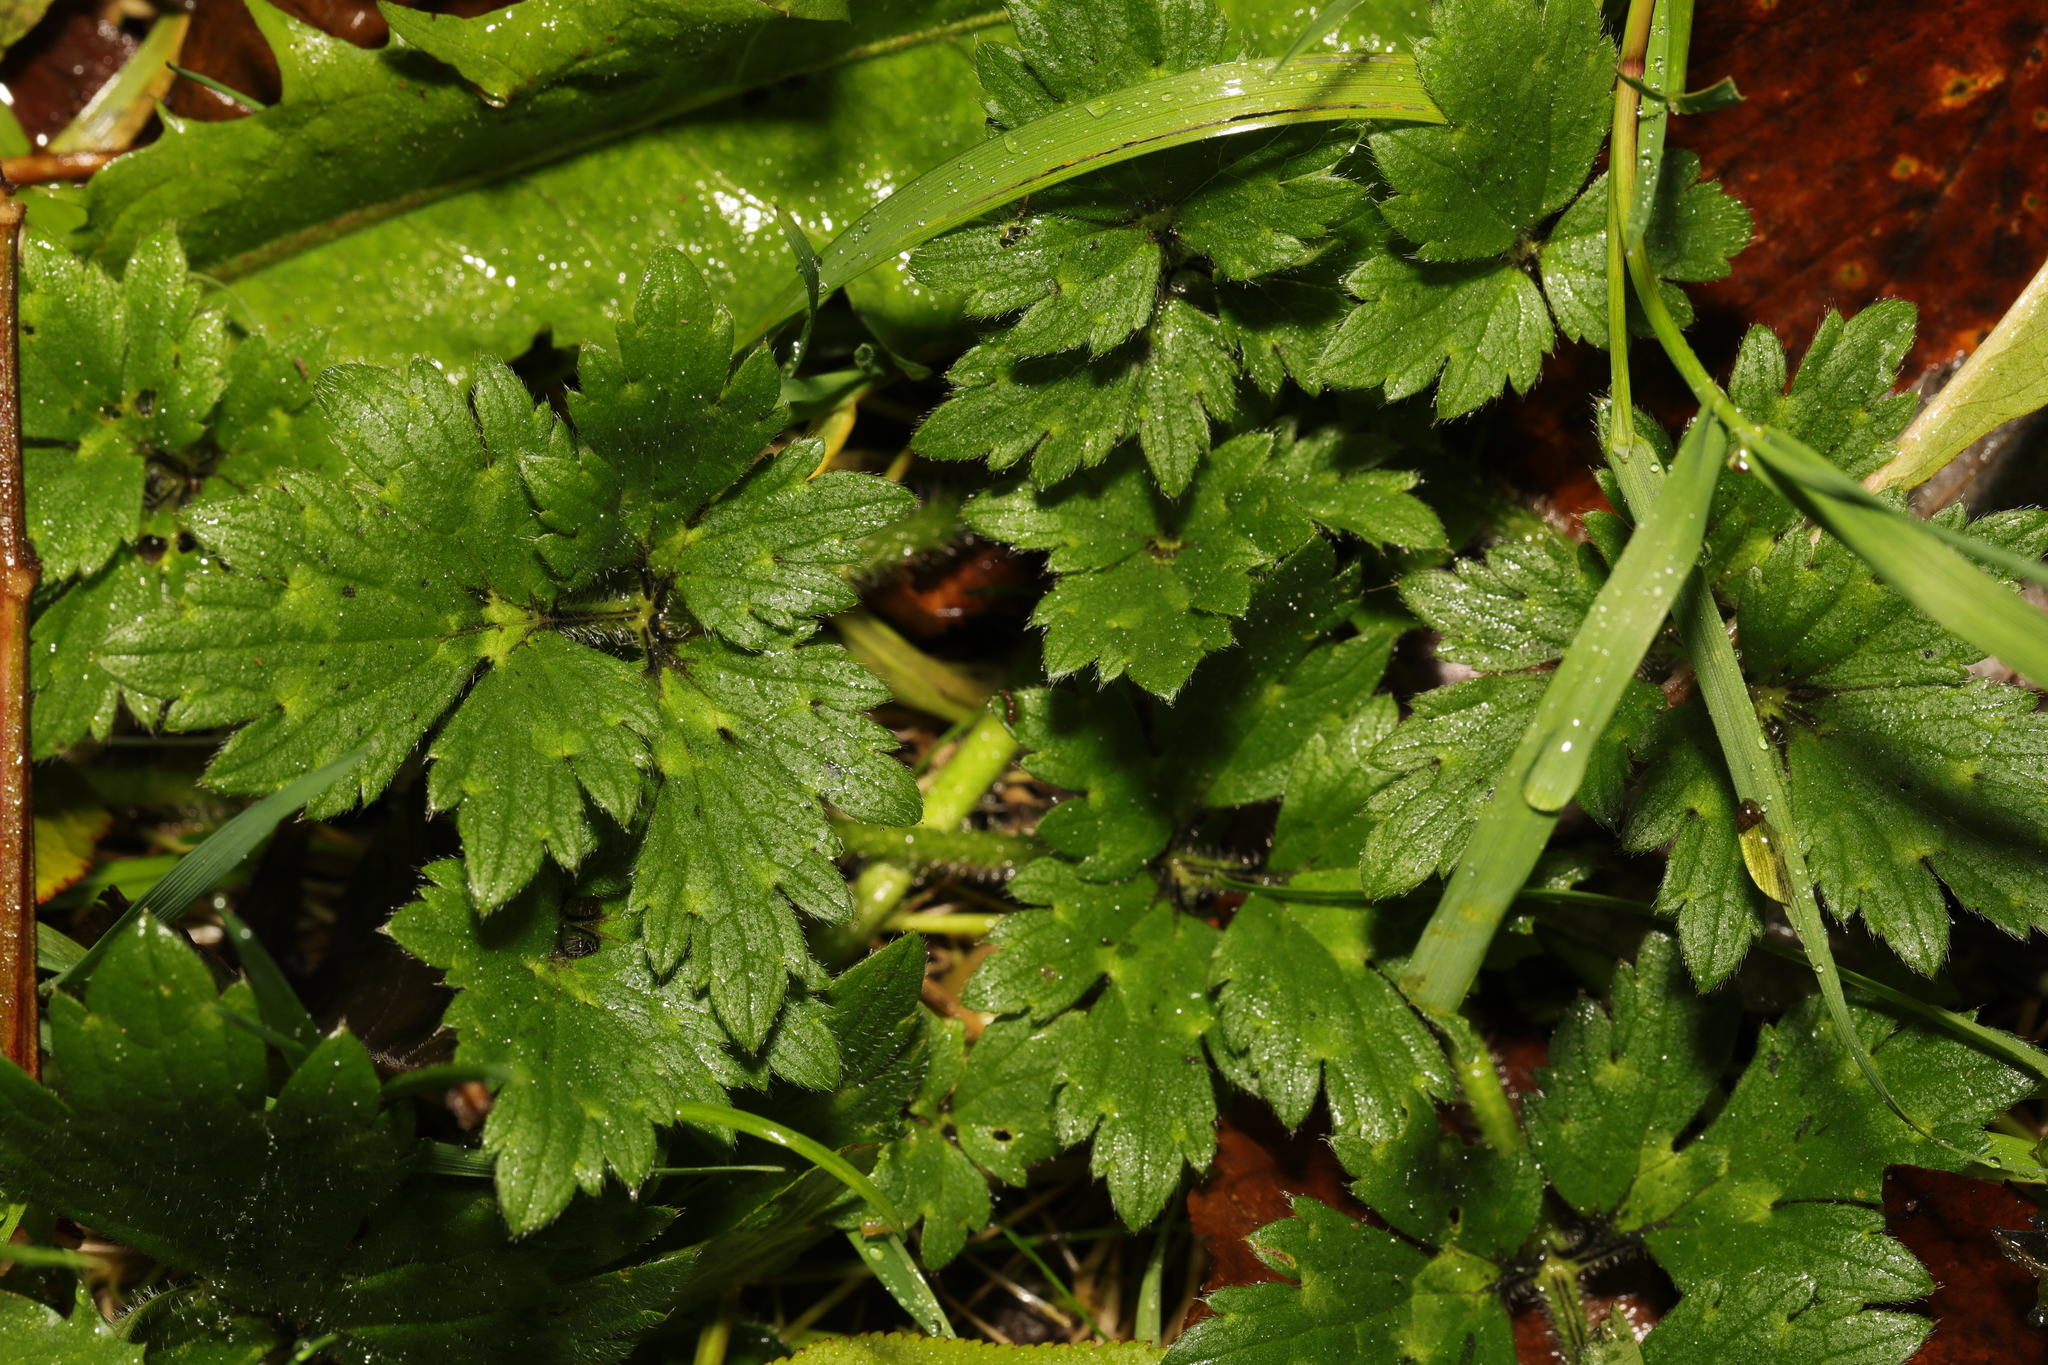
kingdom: Plantae
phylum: Tracheophyta
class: Magnoliopsida
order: Ranunculales
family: Ranunculaceae
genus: Ranunculus
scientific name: Ranunculus repens
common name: Creeping buttercup
